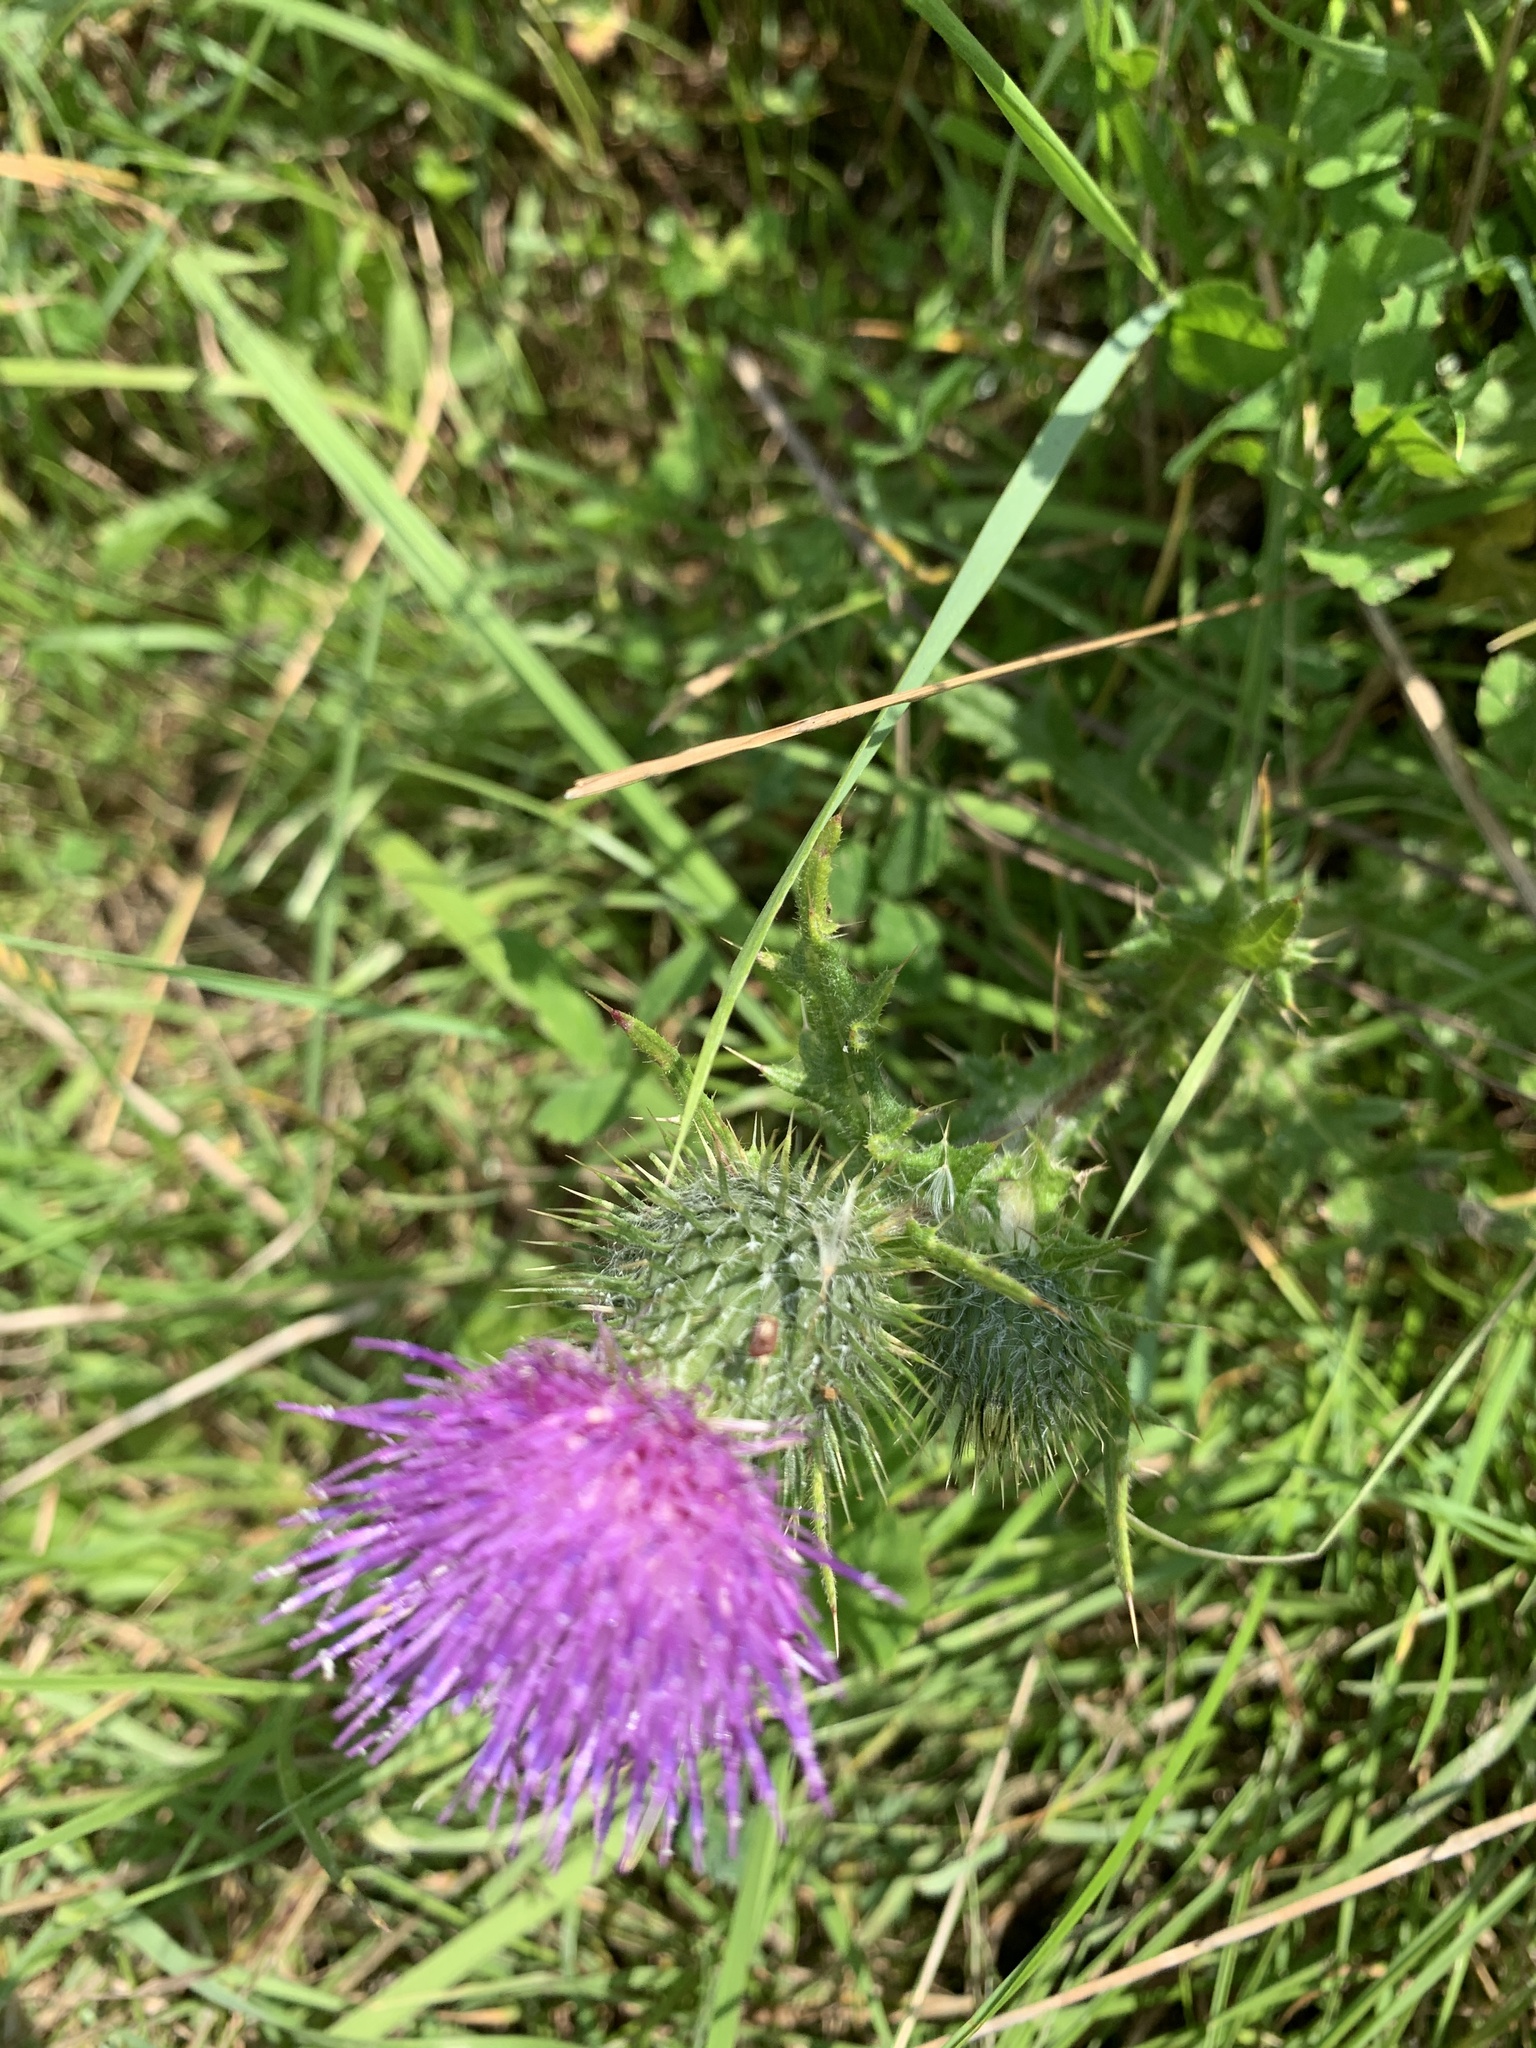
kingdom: Plantae
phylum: Tracheophyta
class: Magnoliopsida
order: Asterales
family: Asteraceae
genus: Cirsium
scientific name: Cirsium vulgare
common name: Bull thistle
